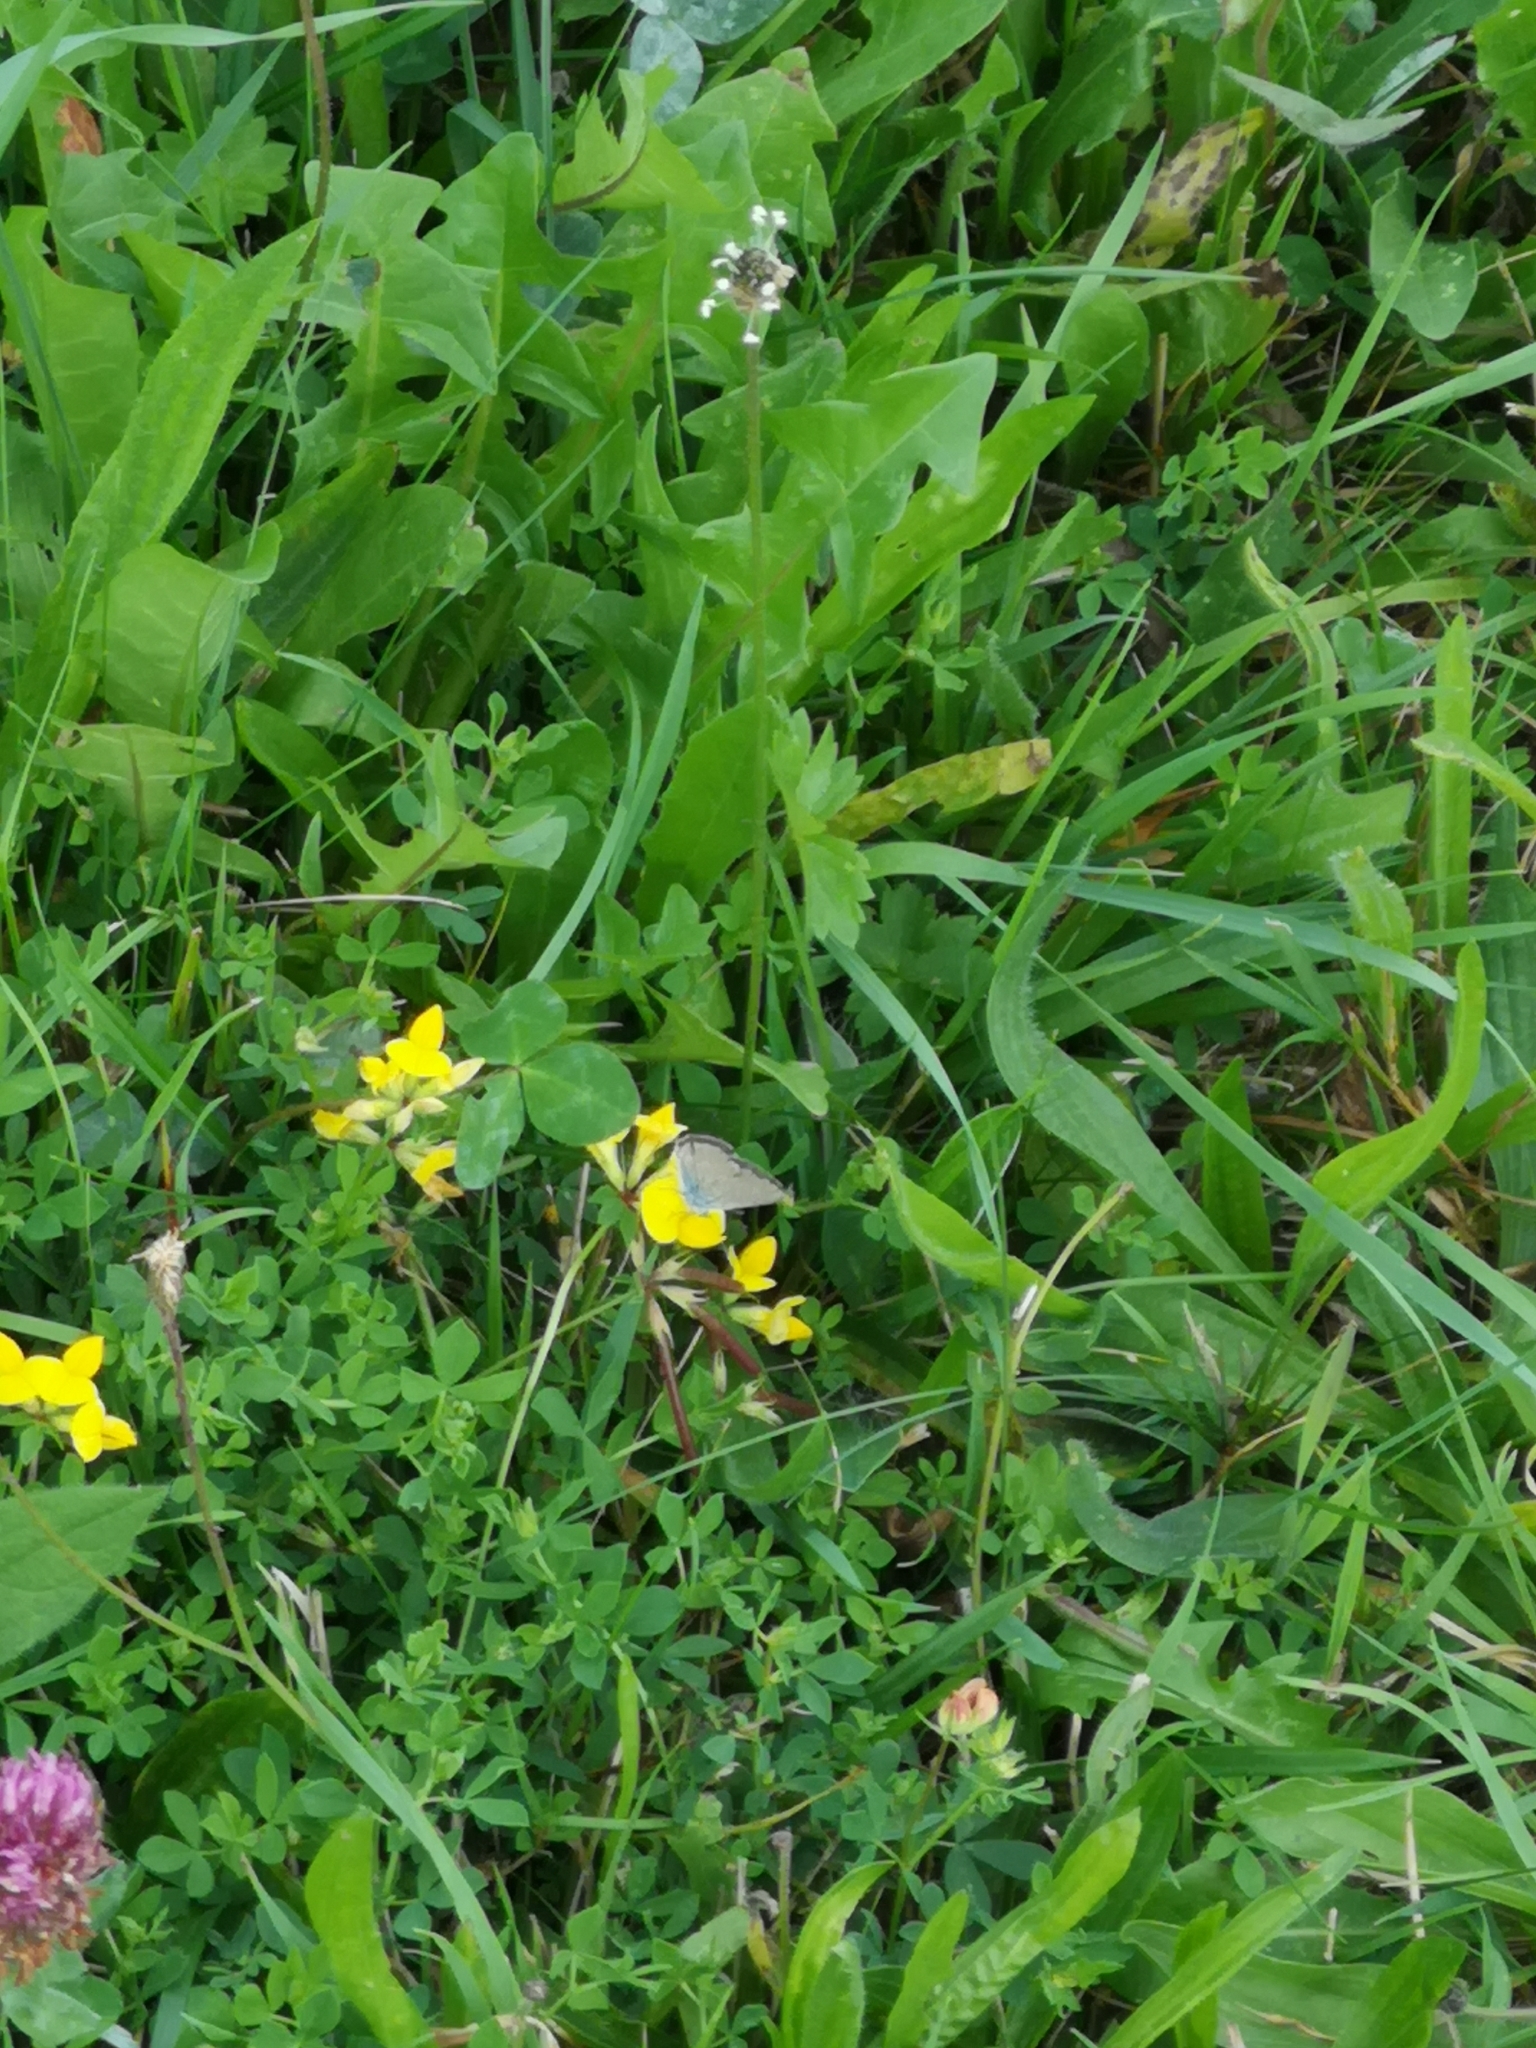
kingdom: Animalia
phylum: Arthropoda
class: Insecta
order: Lepidoptera
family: Lycaenidae
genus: Cyaniris
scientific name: Cyaniris semiargus
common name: Mazarine blue
